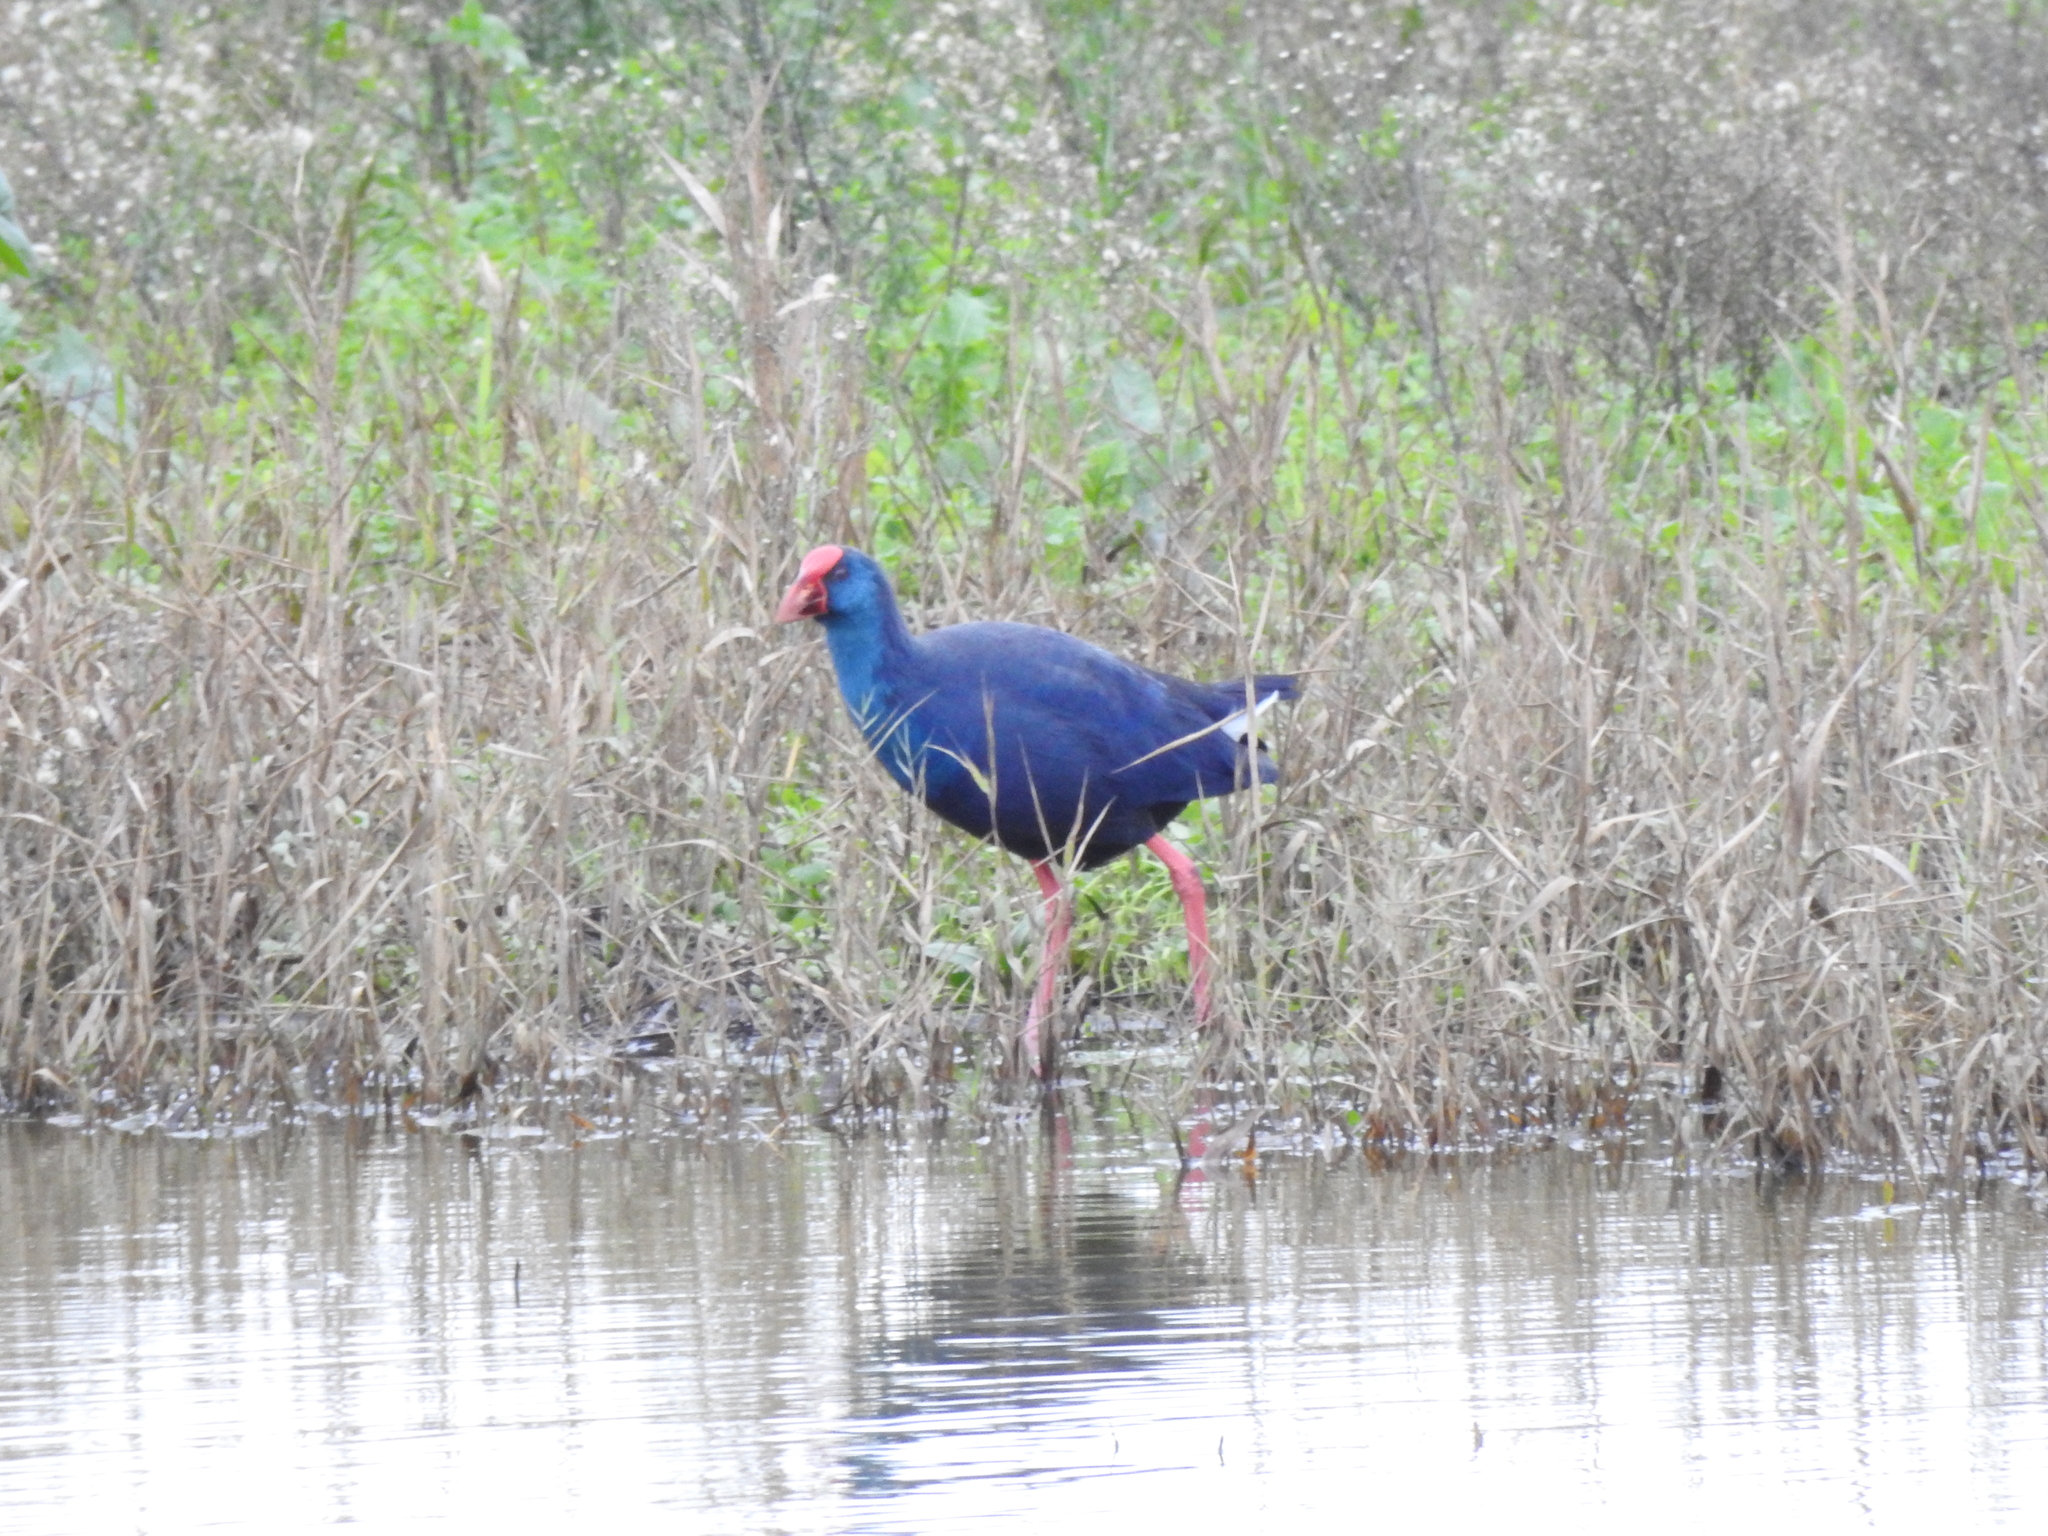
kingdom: Animalia
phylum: Chordata
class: Aves
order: Gruiformes
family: Rallidae
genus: Porphyrio
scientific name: Porphyrio porphyrio
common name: Purple swamphen
